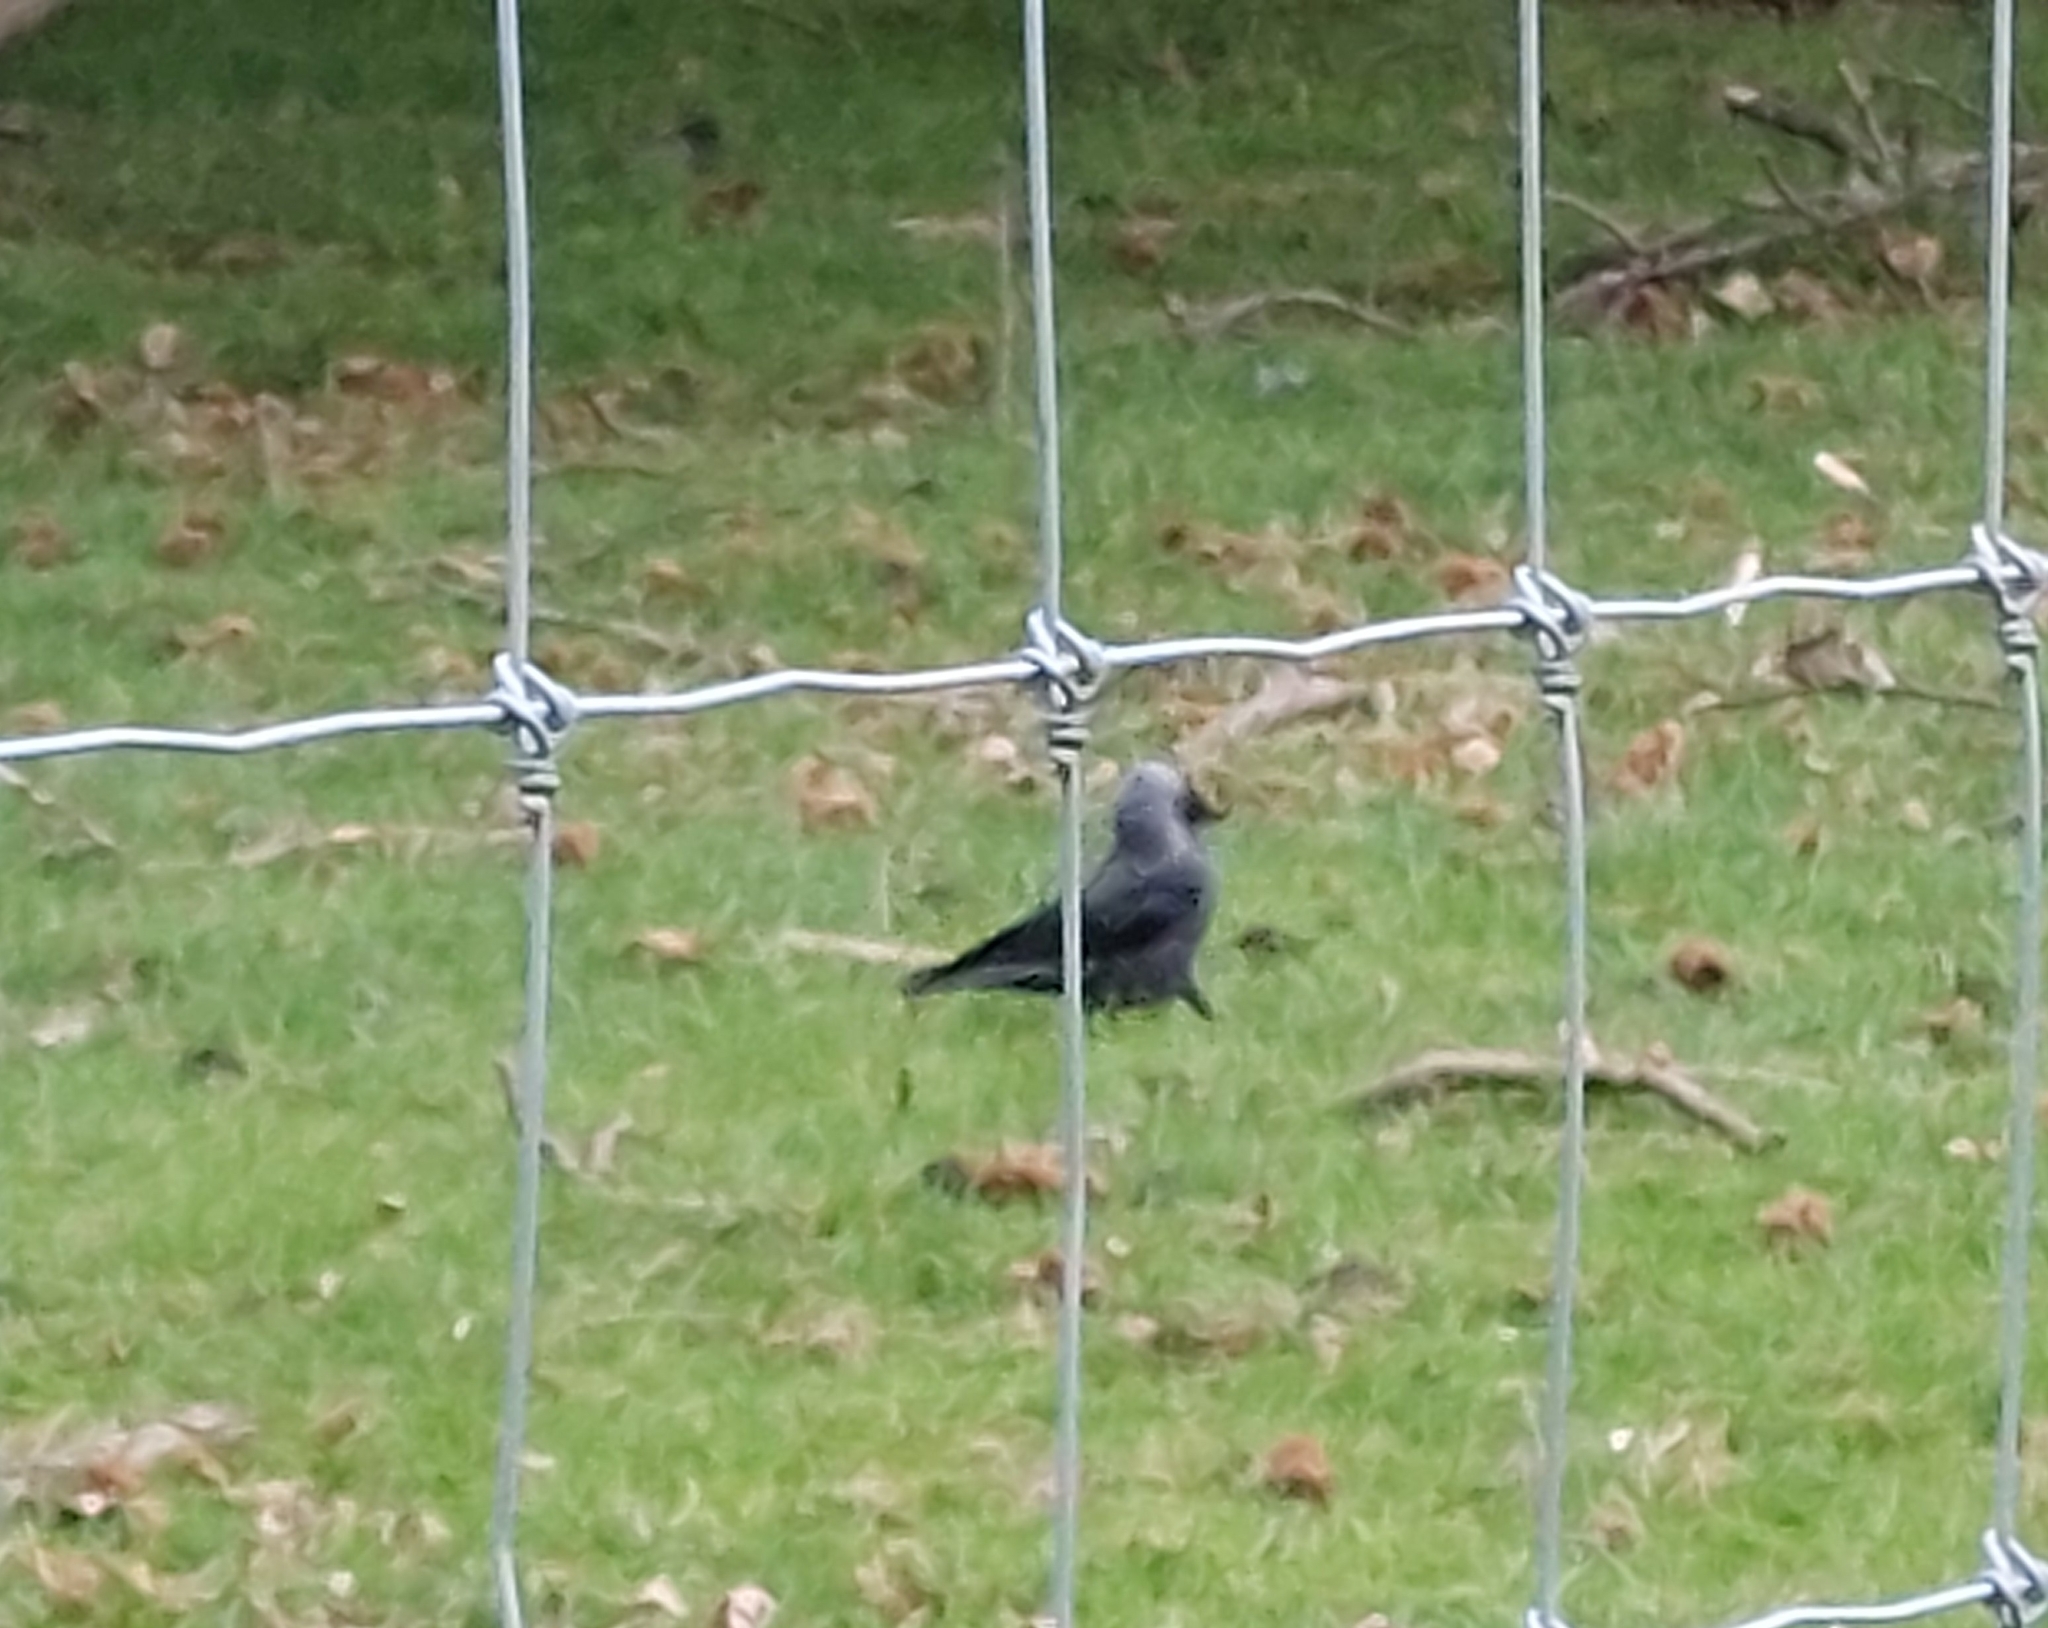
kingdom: Animalia
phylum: Chordata
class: Aves
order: Passeriformes
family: Corvidae
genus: Coloeus
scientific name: Coloeus monedula
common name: Western jackdaw
